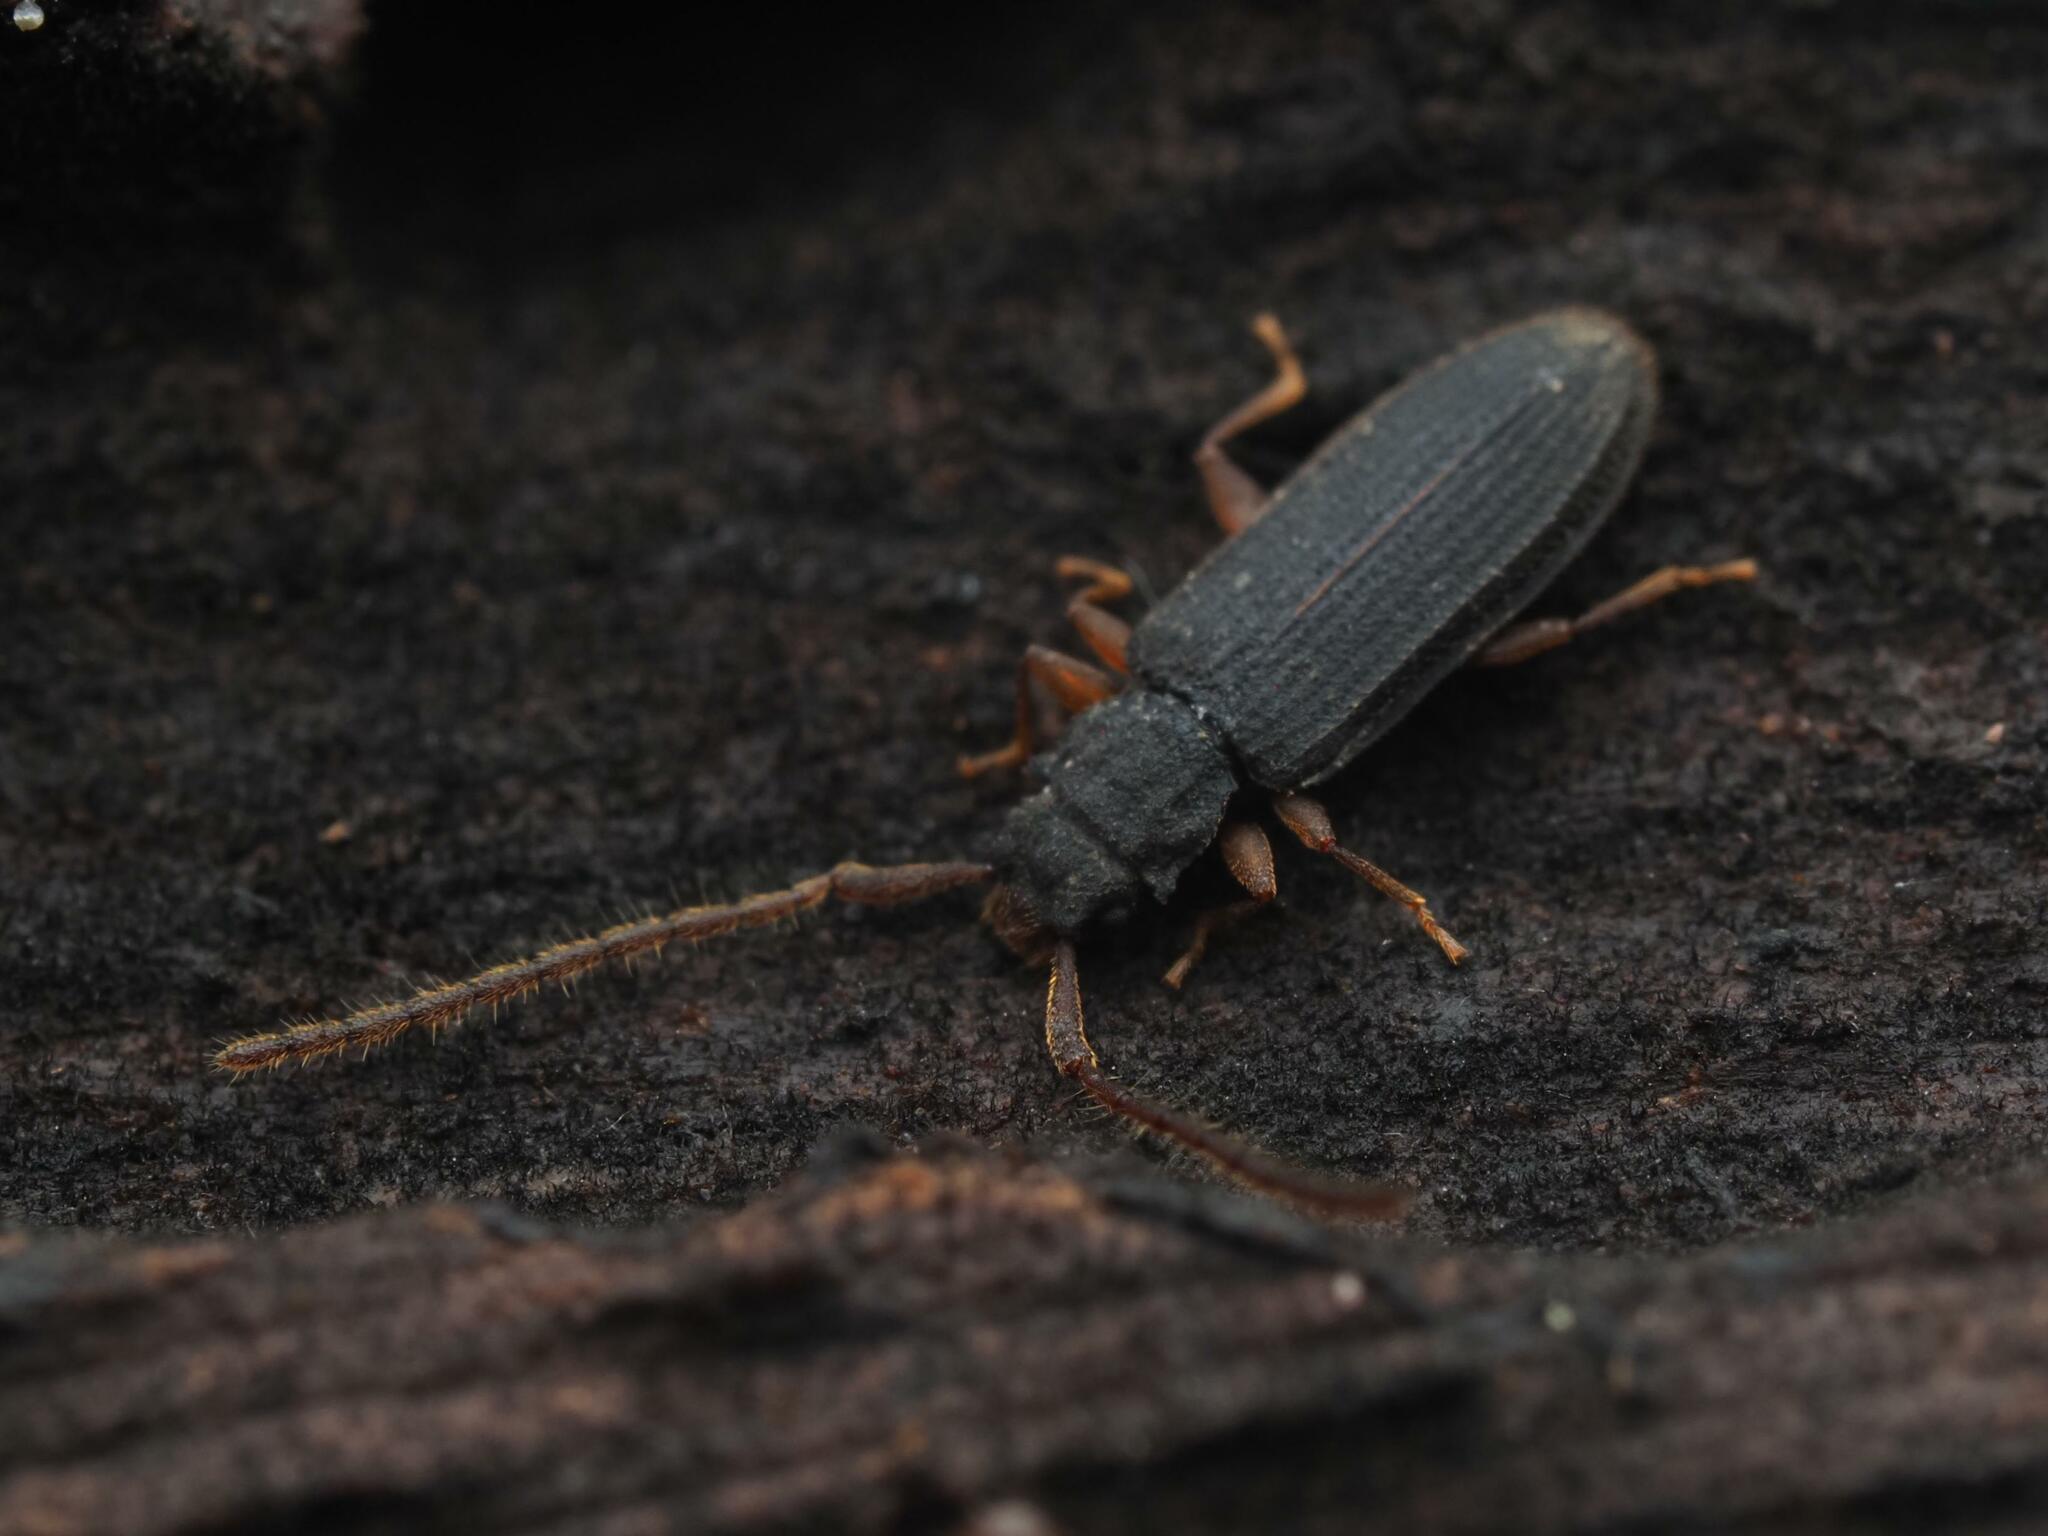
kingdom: Animalia
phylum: Arthropoda
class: Insecta
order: Coleoptera
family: Silvanidae
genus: Uleiota
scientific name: Uleiota planatus
